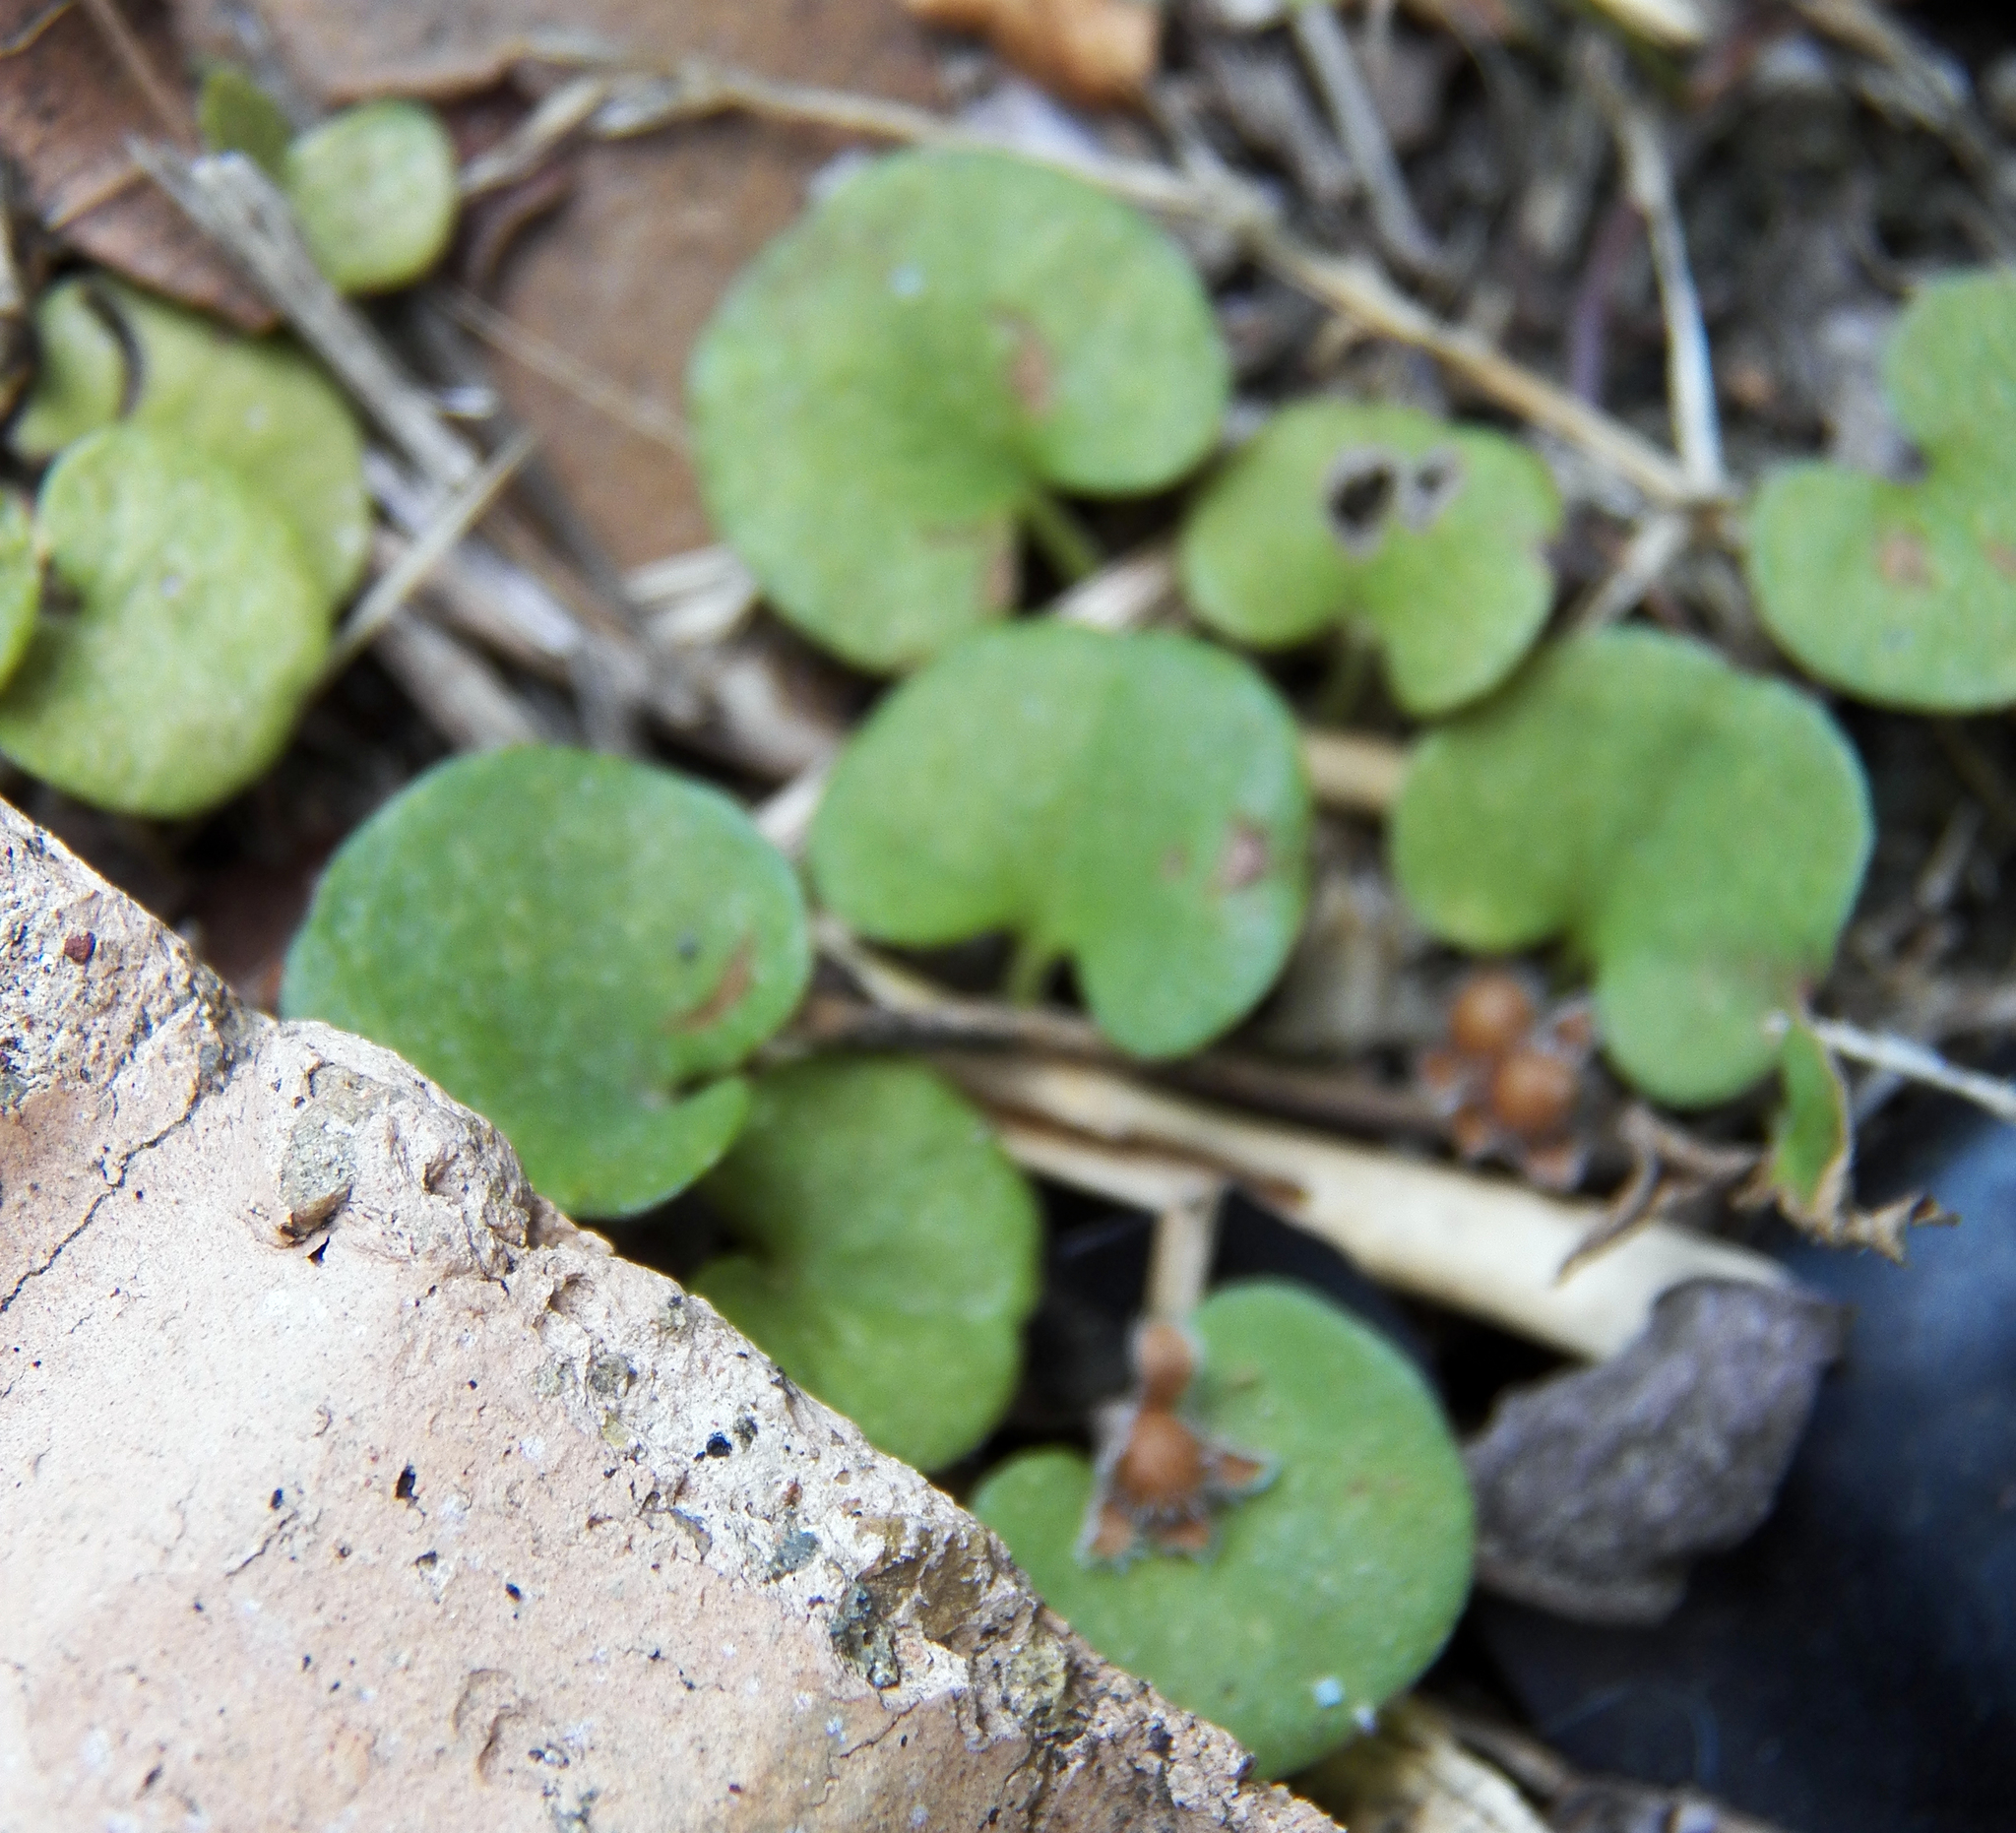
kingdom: Plantae
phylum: Tracheophyta
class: Magnoliopsida
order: Solanales
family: Convolvulaceae
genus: Dichondra
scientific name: Dichondra carolinensis
